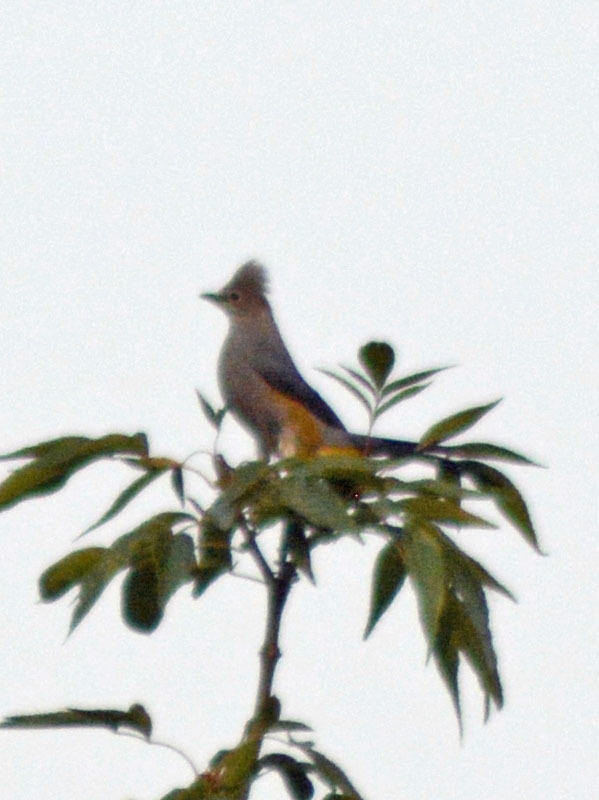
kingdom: Animalia
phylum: Chordata
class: Aves
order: Passeriformes
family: Ptilogonatidae
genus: Ptilogonys
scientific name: Ptilogonys cinereus
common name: Gray silky-flycatcher
